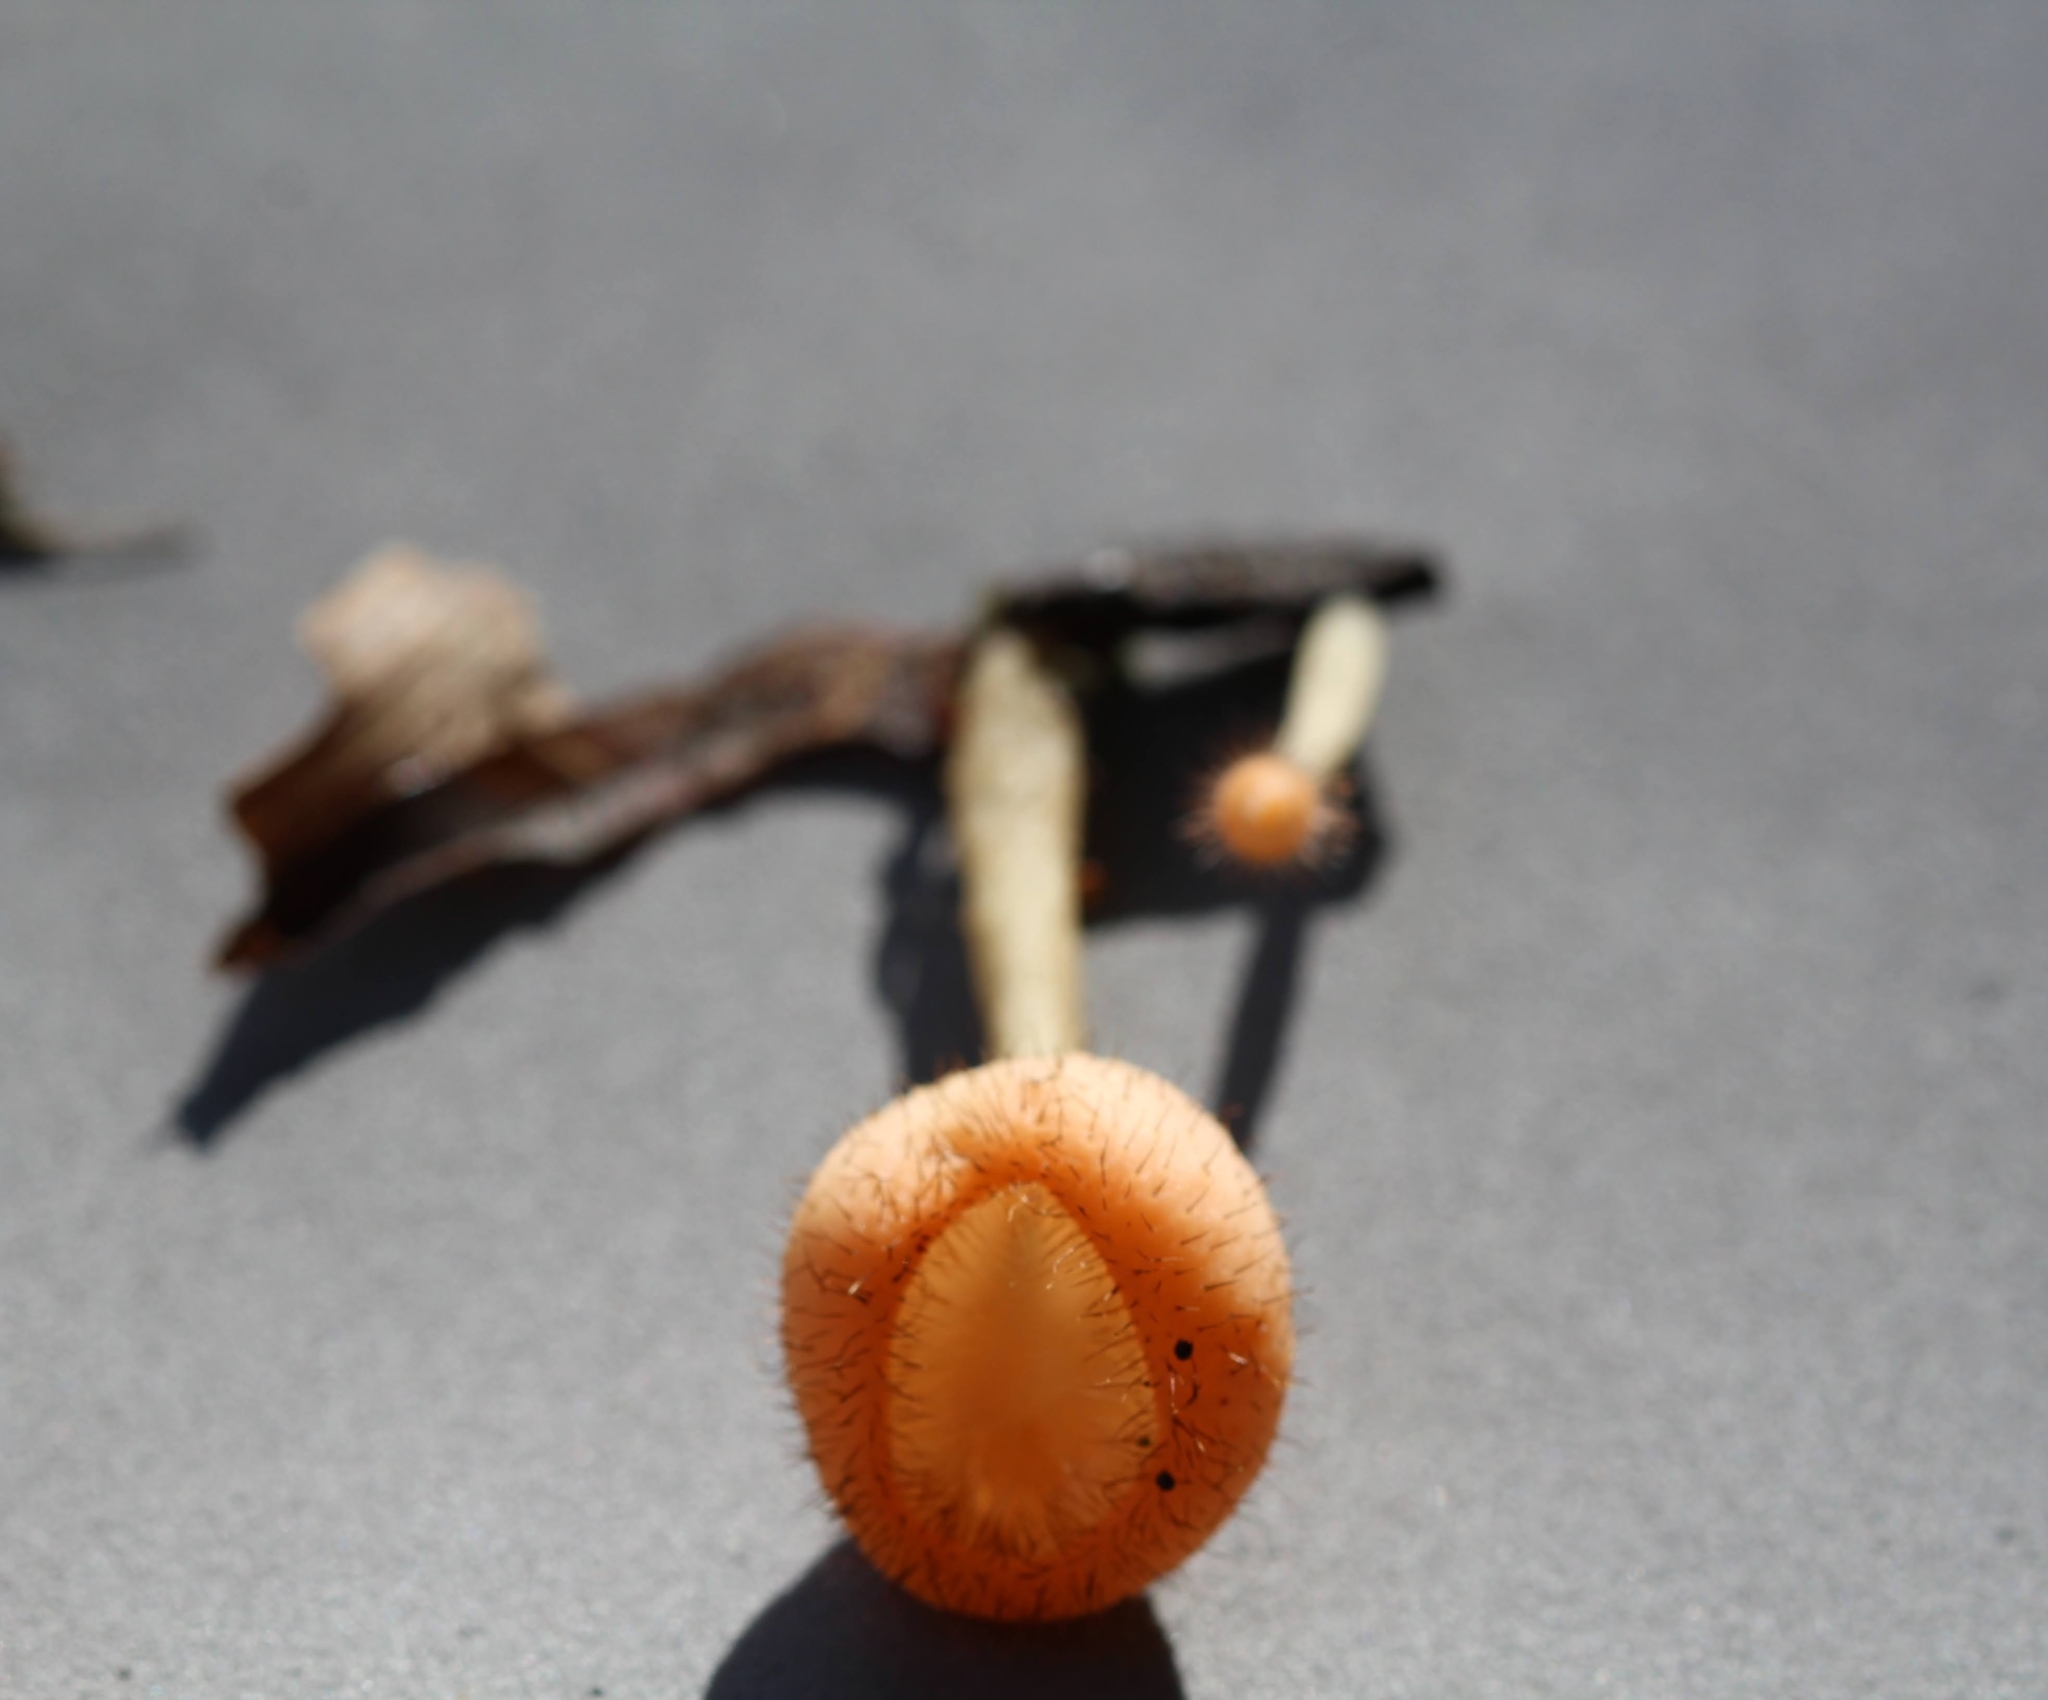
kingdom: Fungi
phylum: Ascomycota
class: Pezizomycetes
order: Pezizales
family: Sarcoscyphaceae
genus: Cookeina
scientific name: Cookeina tricholoma
